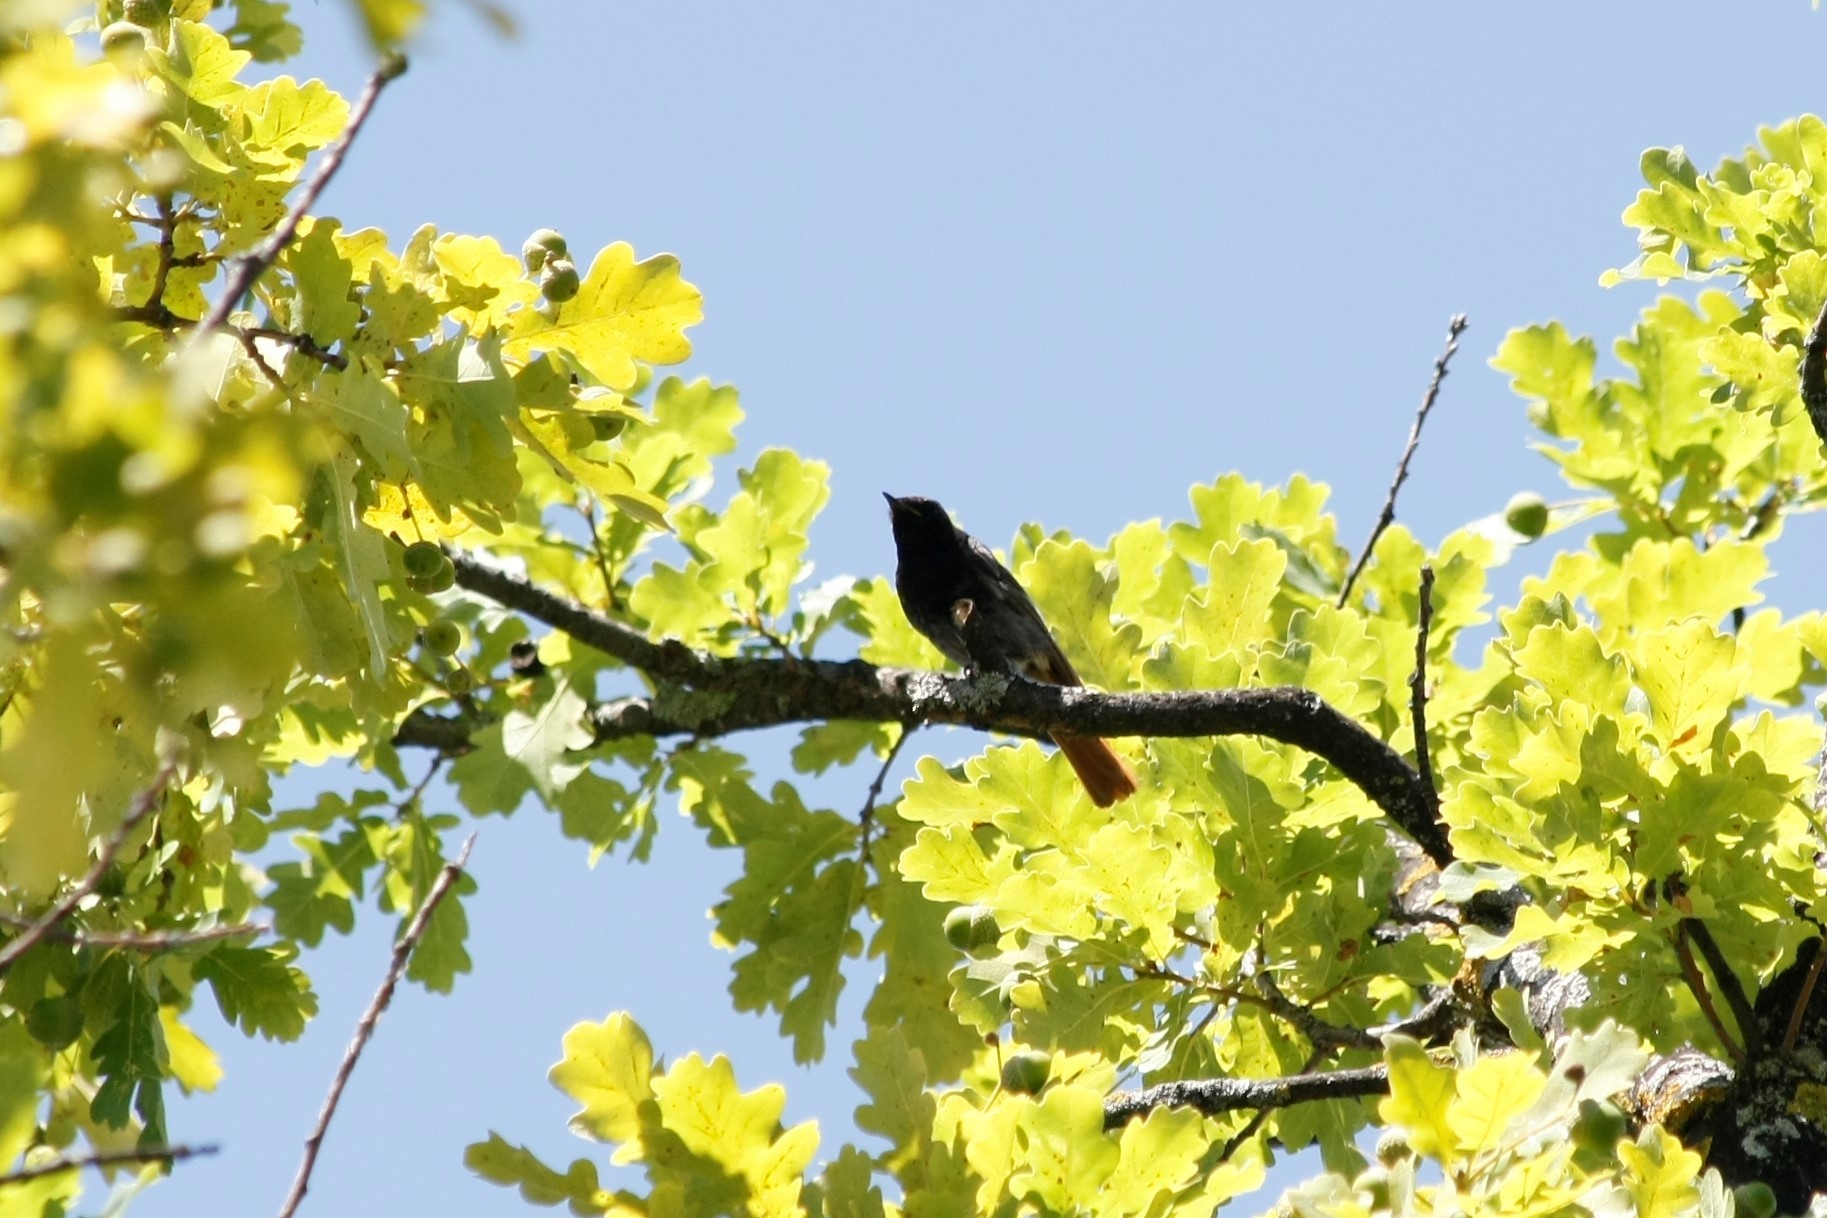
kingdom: Animalia
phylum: Chordata
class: Aves
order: Passeriformes
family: Muscicapidae
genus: Phoenicurus
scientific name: Phoenicurus ochruros
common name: Black redstart
